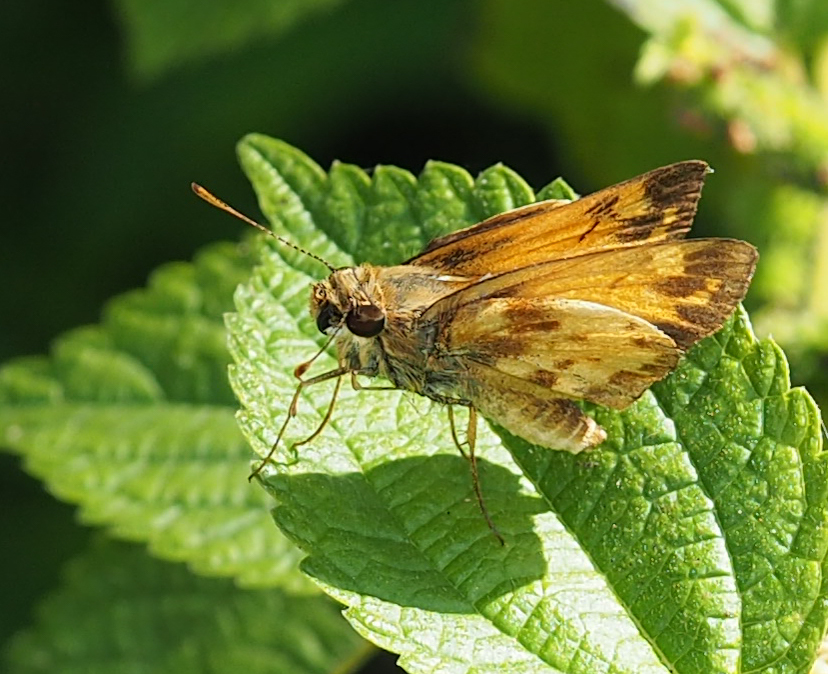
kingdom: Animalia
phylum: Arthropoda
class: Insecta
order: Lepidoptera
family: Hesperiidae
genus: Lon
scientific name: Lon zabulon
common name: Zabulon skipper
